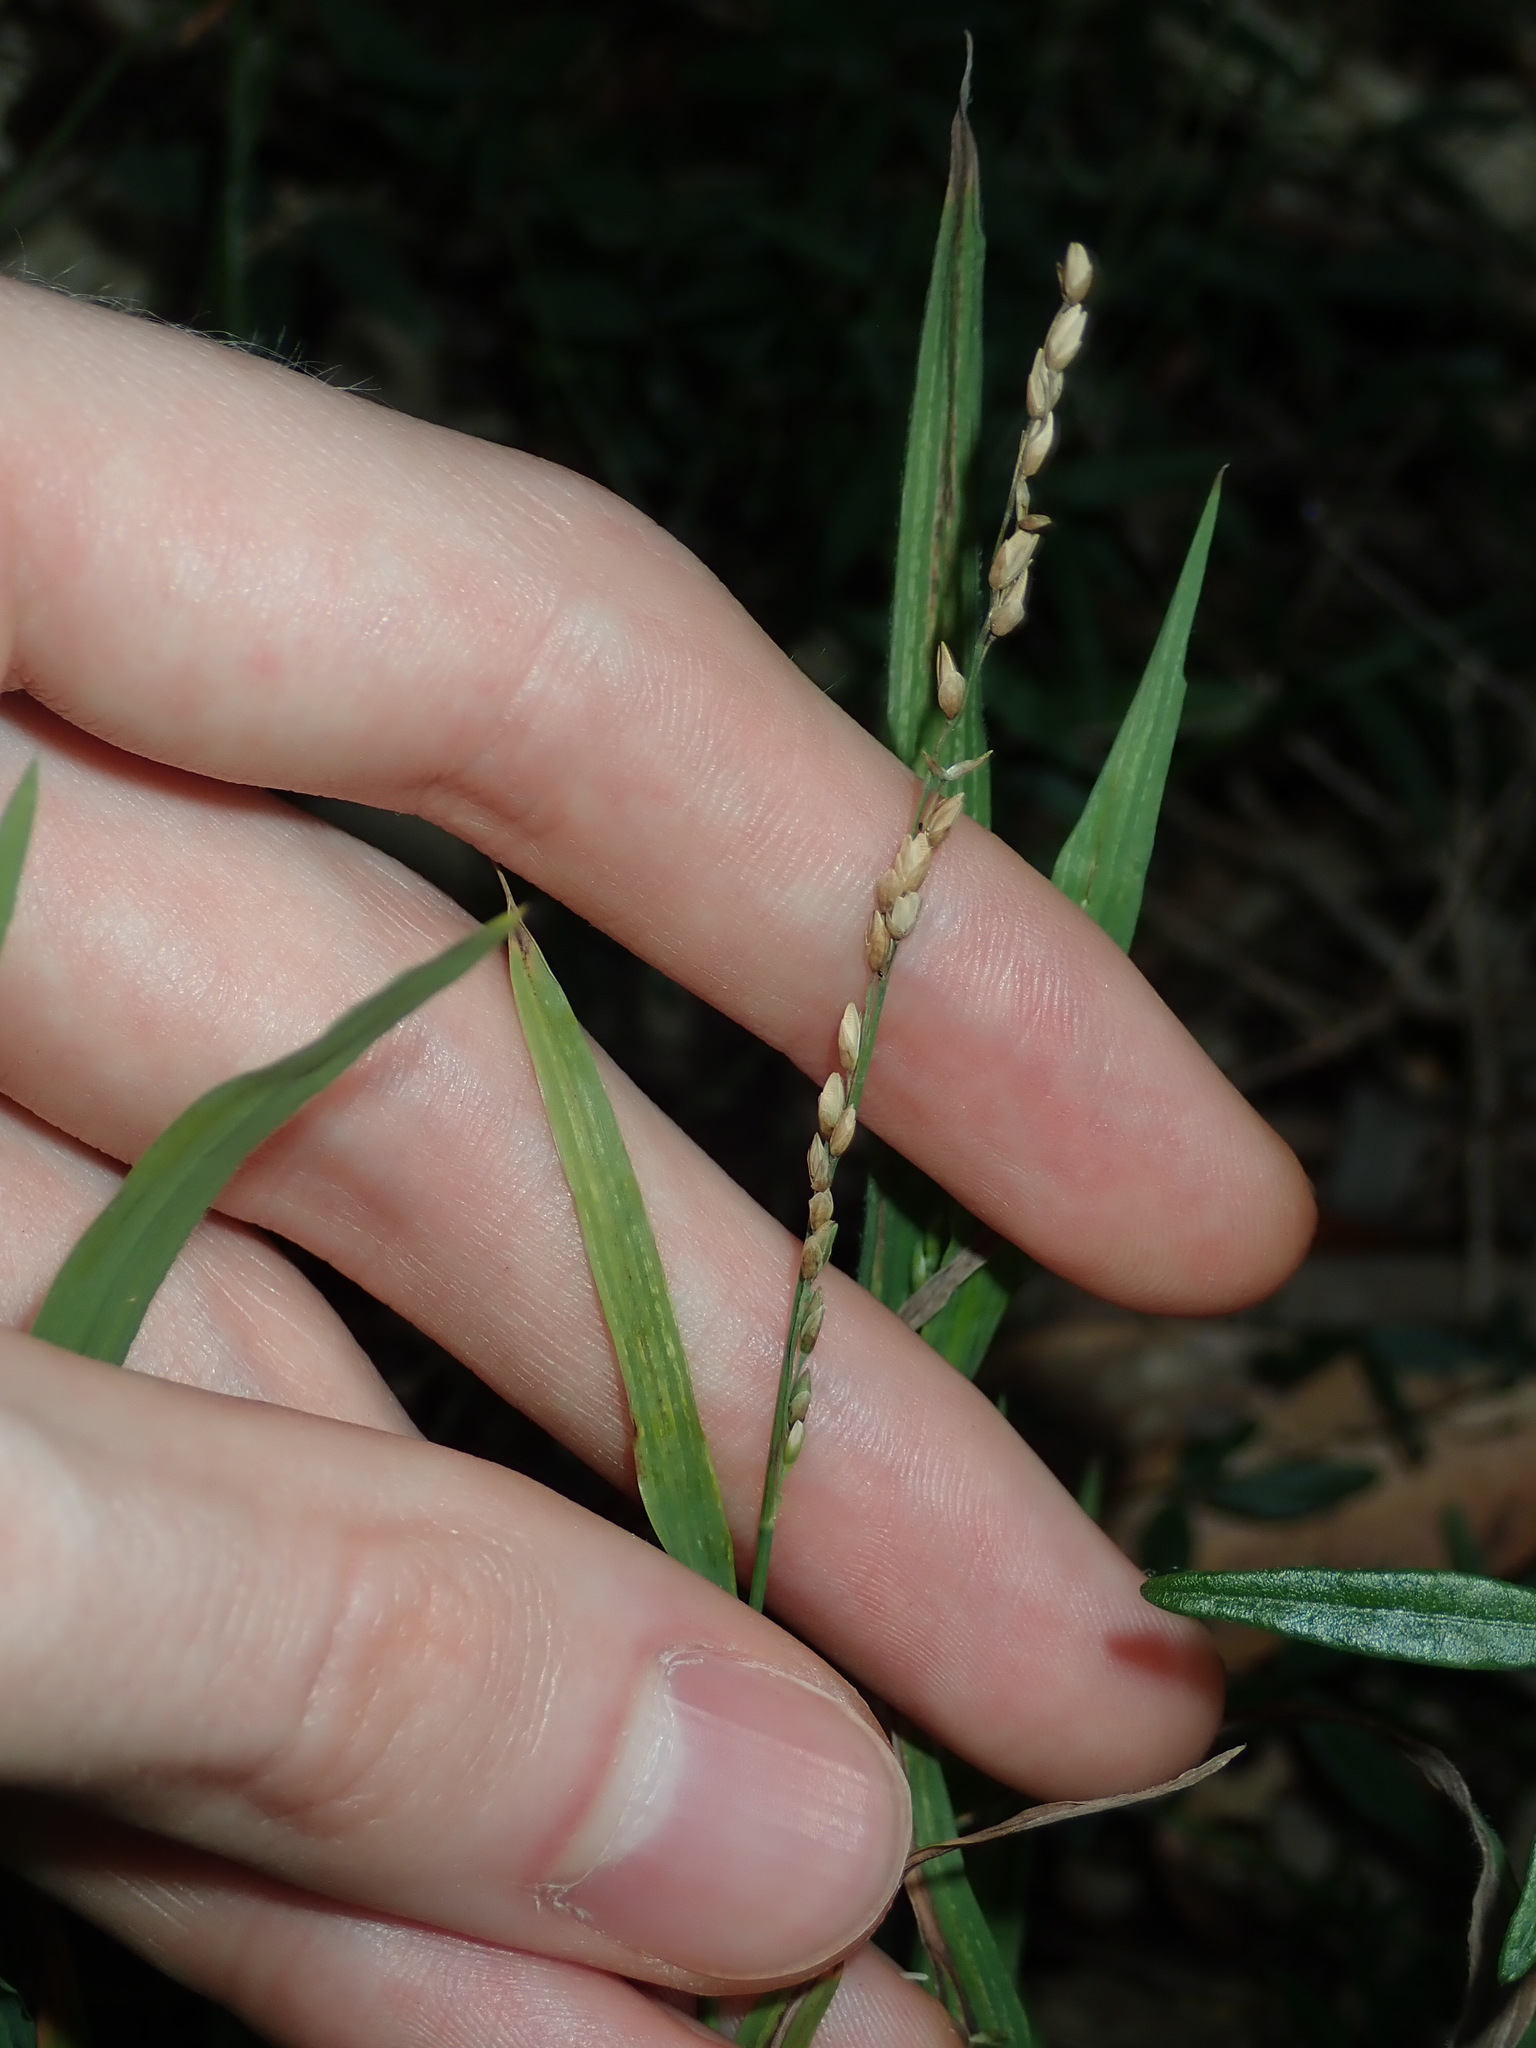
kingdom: Plantae
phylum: Tracheophyta
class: Liliopsida
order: Poales
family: Poaceae
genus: Ehrharta
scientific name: Ehrharta erecta
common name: Panic veldtgrass
